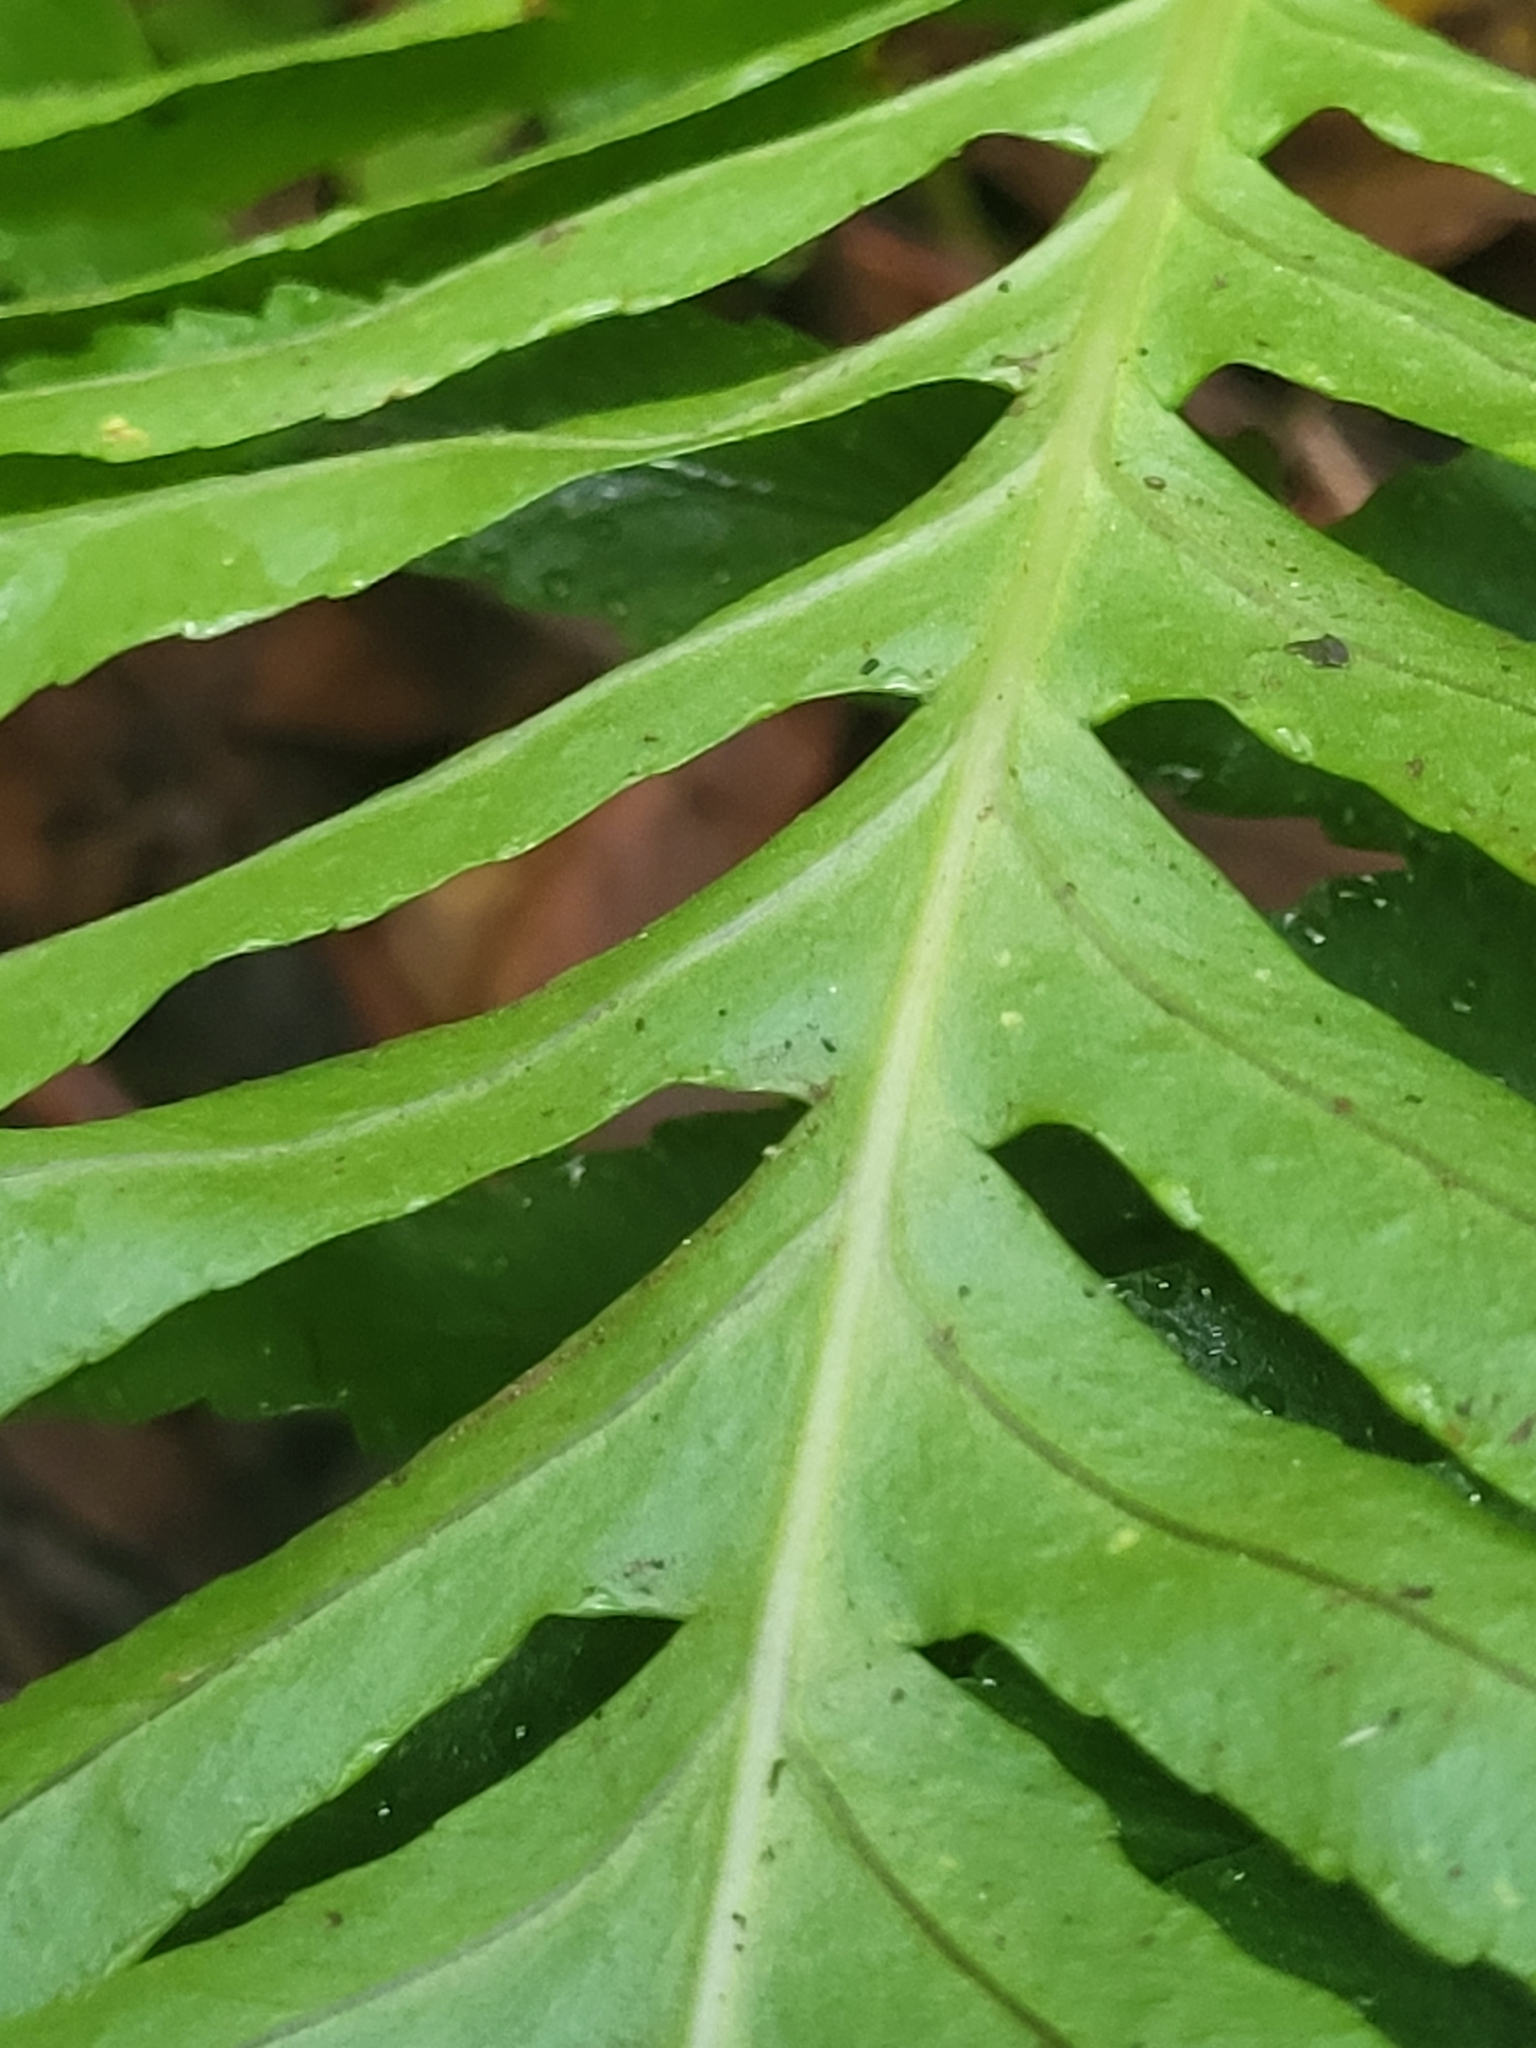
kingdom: Plantae
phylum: Tracheophyta
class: Polypodiopsida
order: Polypodiales
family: Polypodiaceae
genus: Polypodium
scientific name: Polypodium macaronesicum
